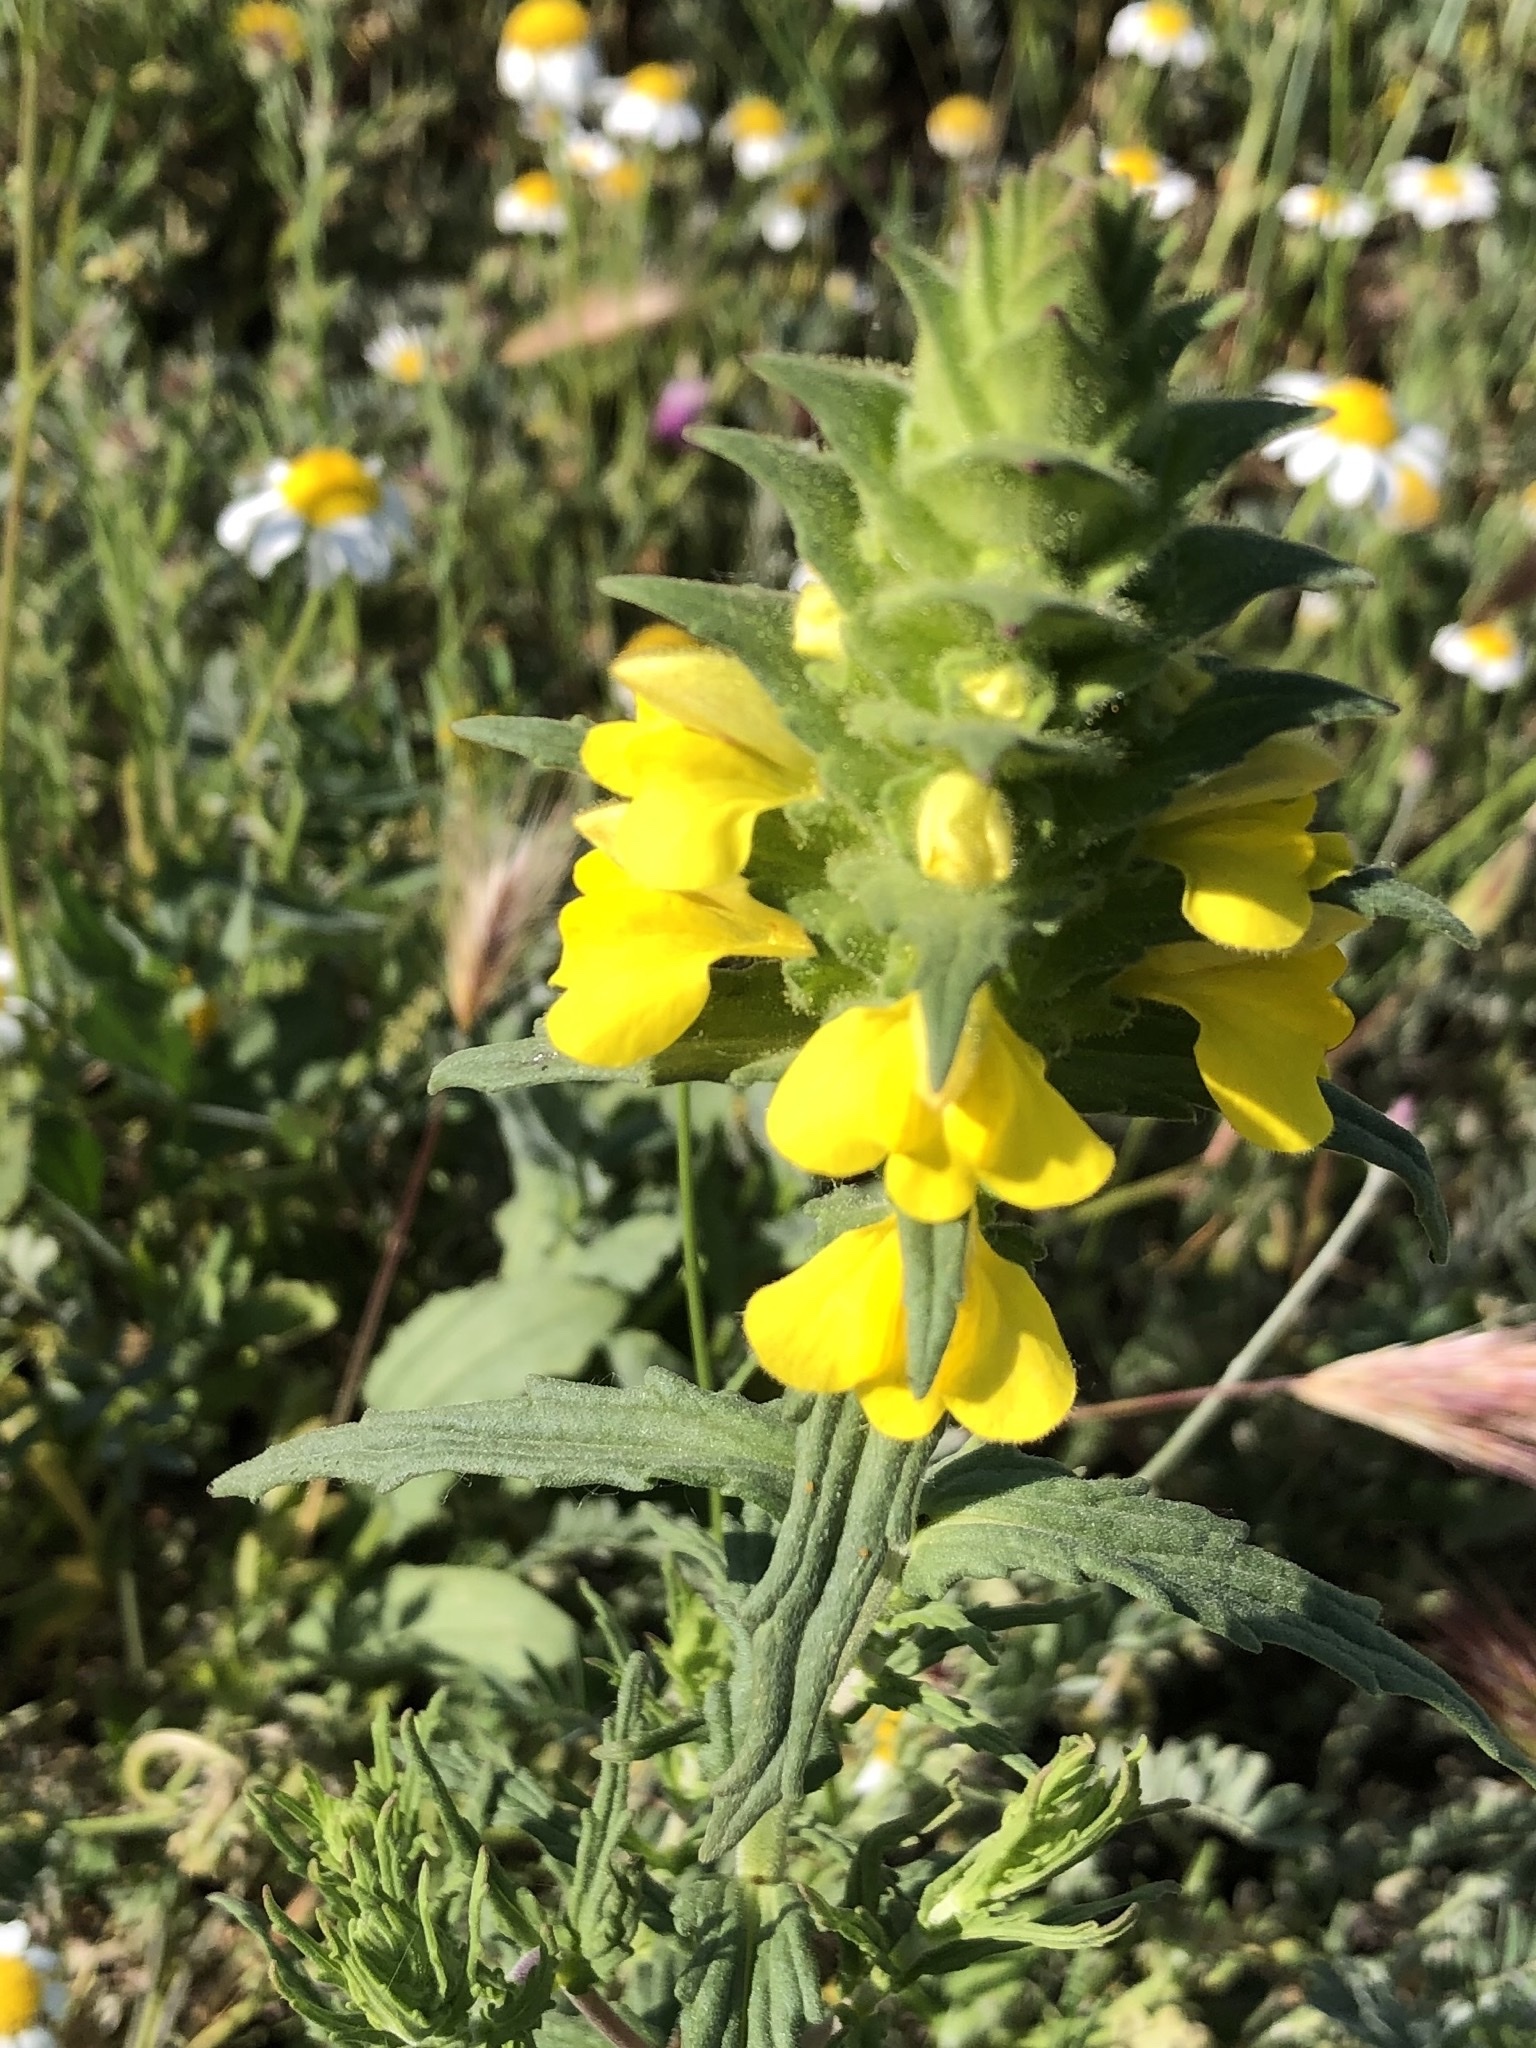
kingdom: Plantae
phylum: Tracheophyta
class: Magnoliopsida
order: Lamiales
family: Orobanchaceae
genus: Bellardia
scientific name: Bellardia trixago
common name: Mediterranean lineseed
